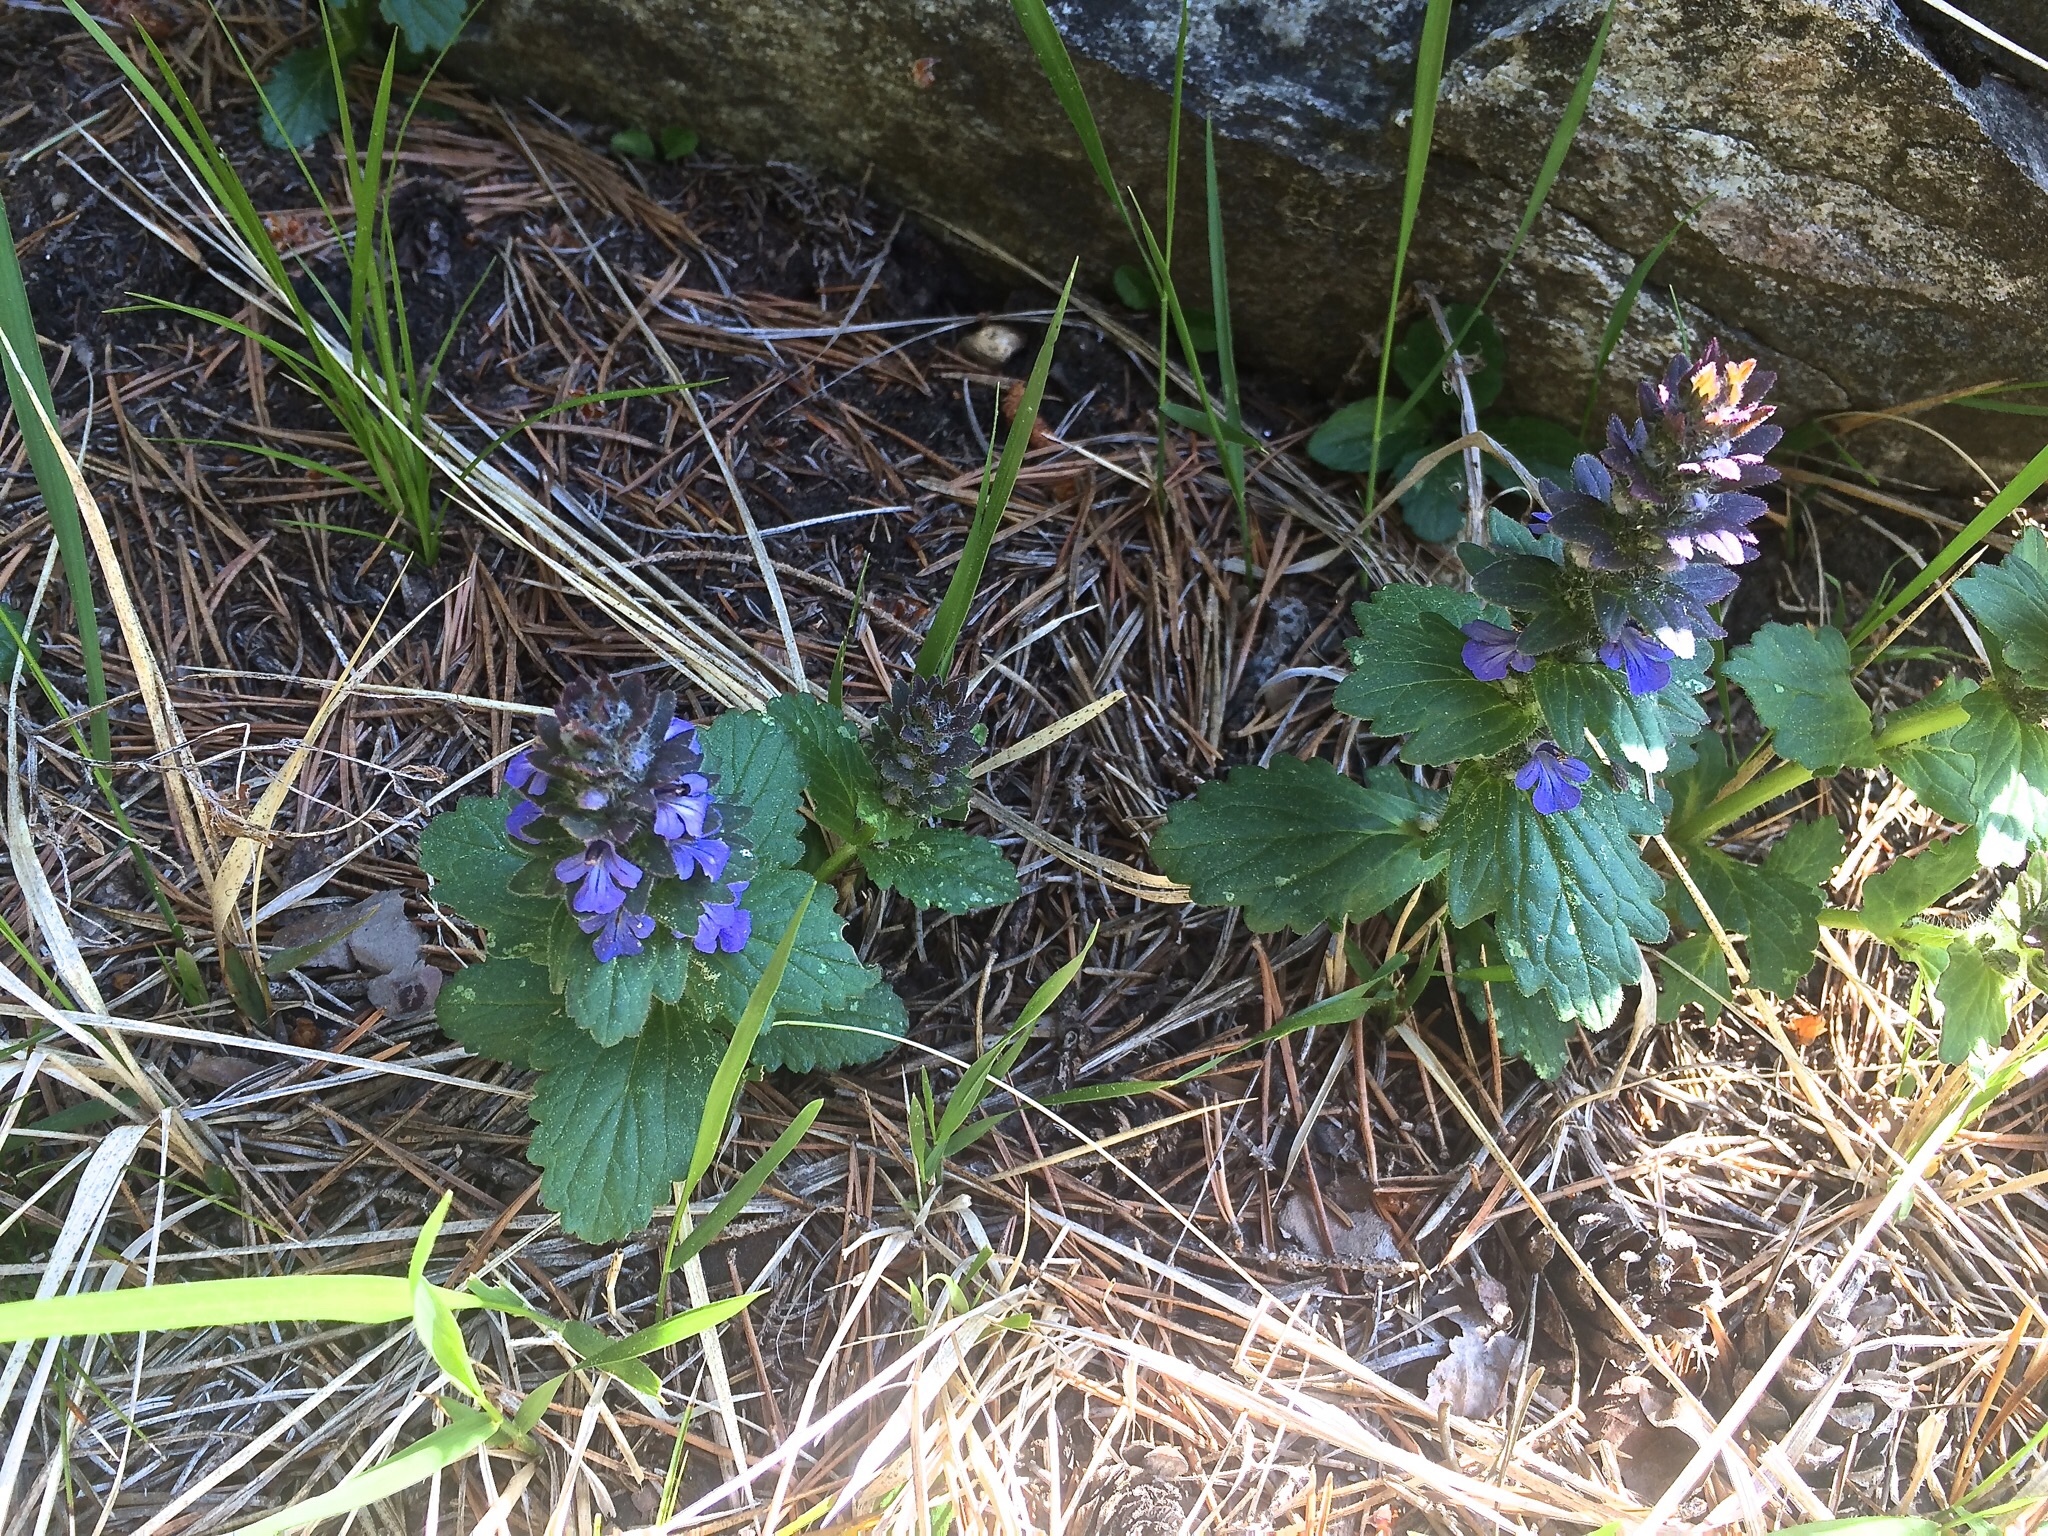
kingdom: Plantae
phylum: Tracheophyta
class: Magnoliopsida
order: Lamiales
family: Lamiaceae
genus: Ajuga
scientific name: Ajuga genevensis
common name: Blue bugle
